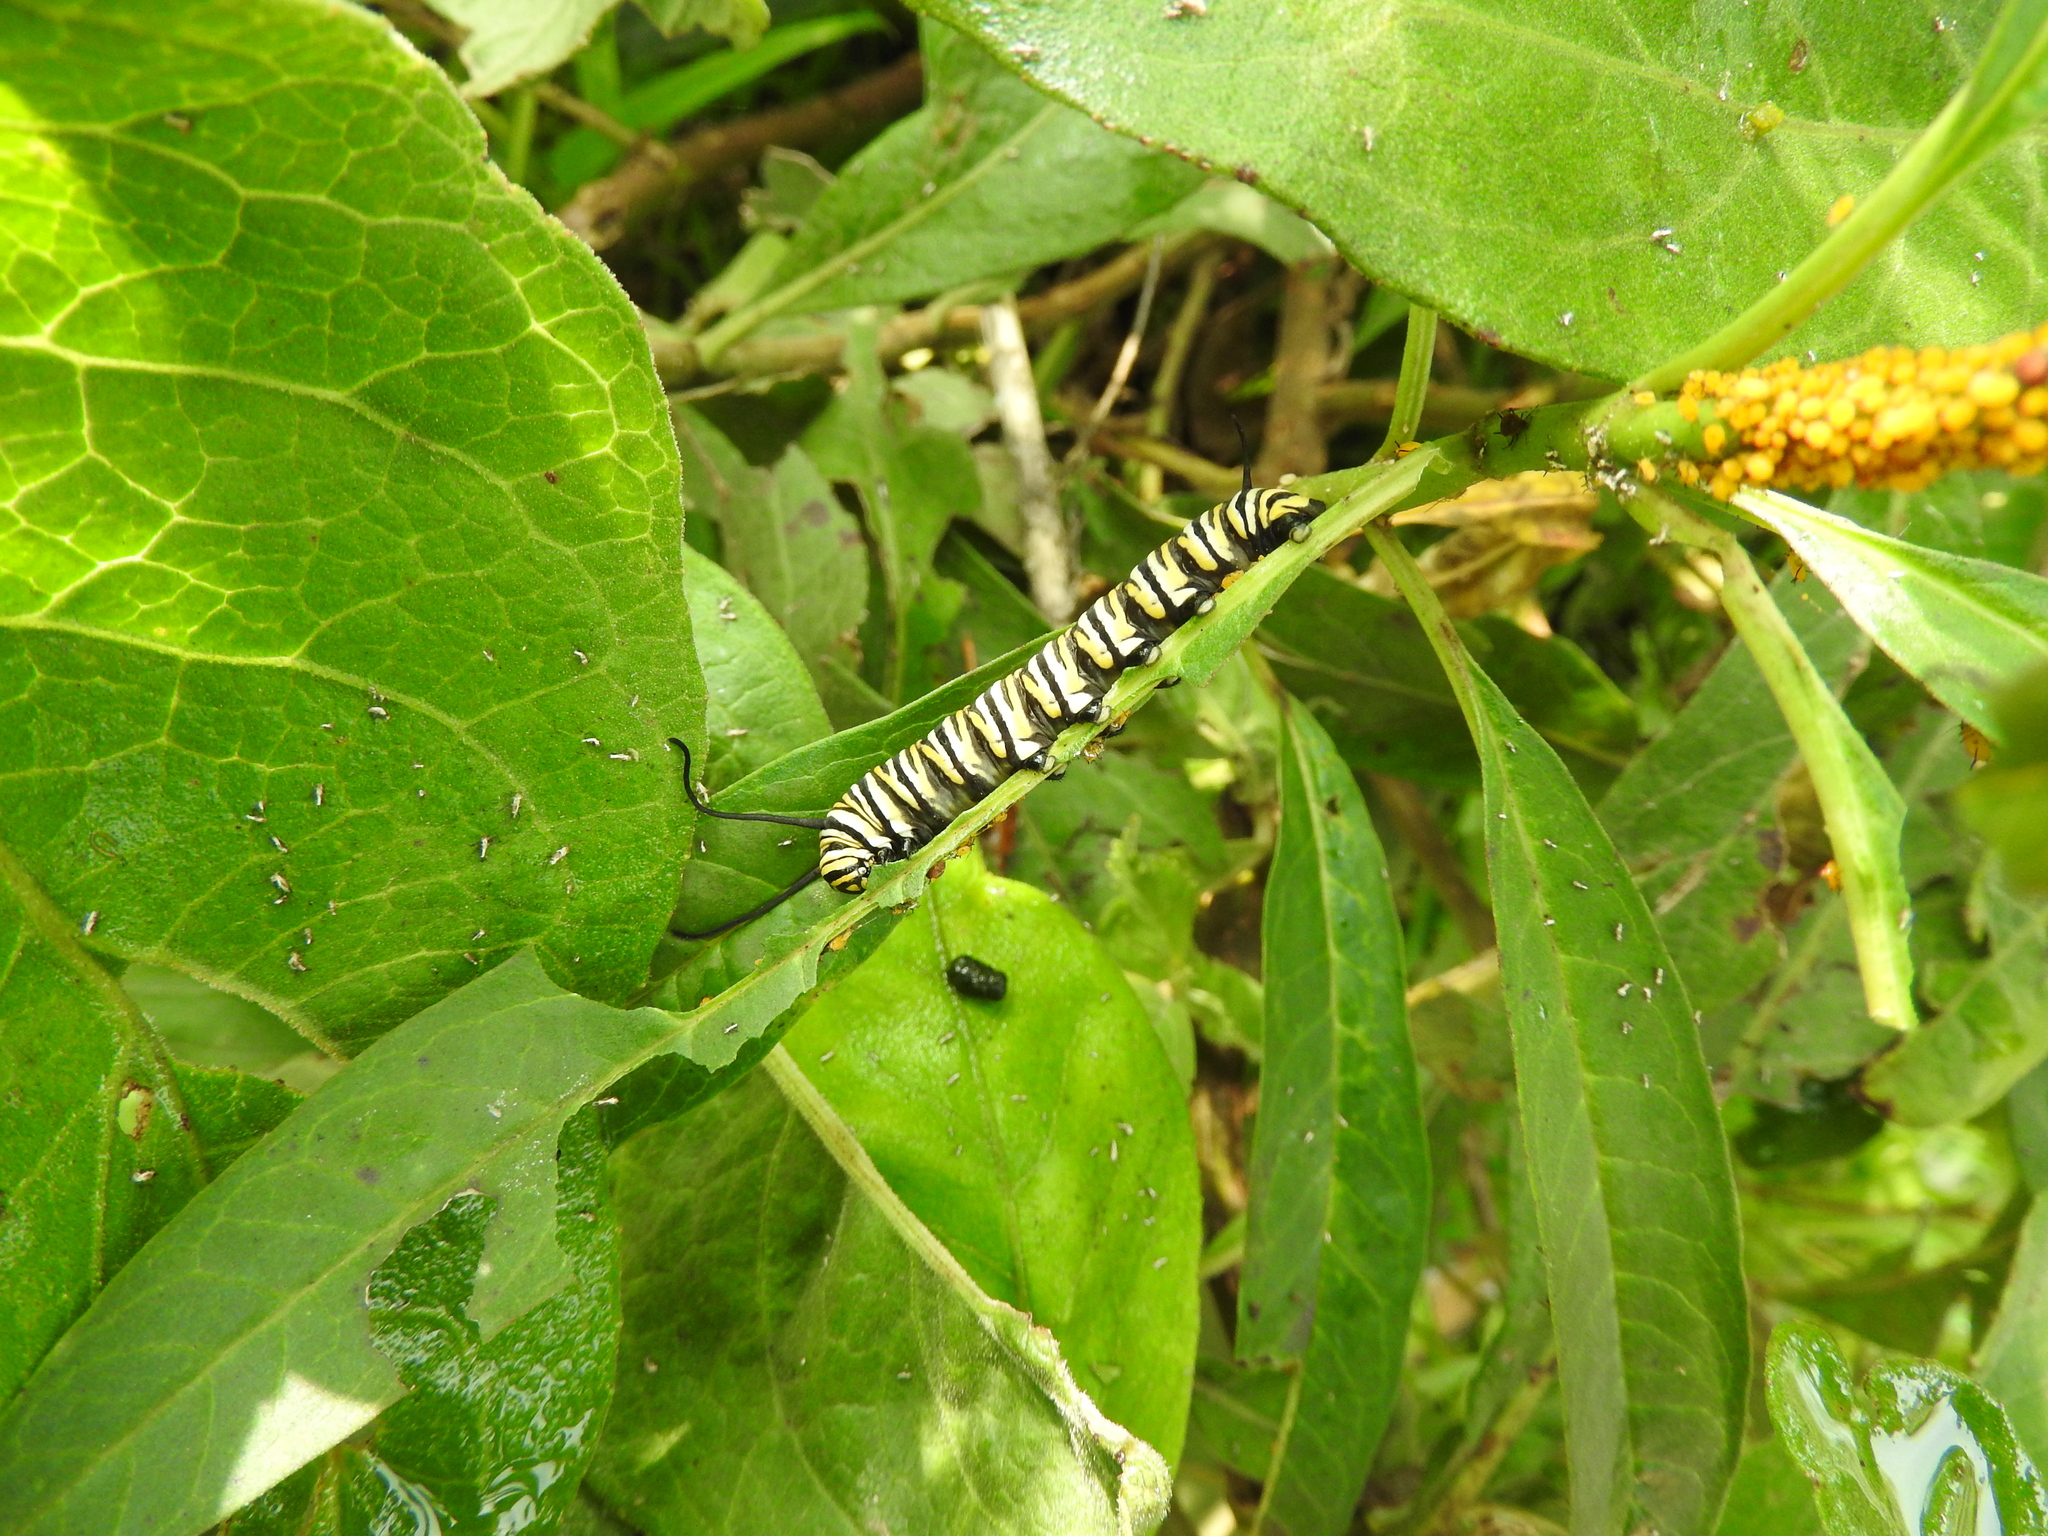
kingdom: Animalia
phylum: Arthropoda
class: Insecta
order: Lepidoptera
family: Nymphalidae
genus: Danaus
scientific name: Danaus plexippus
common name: Monarch
